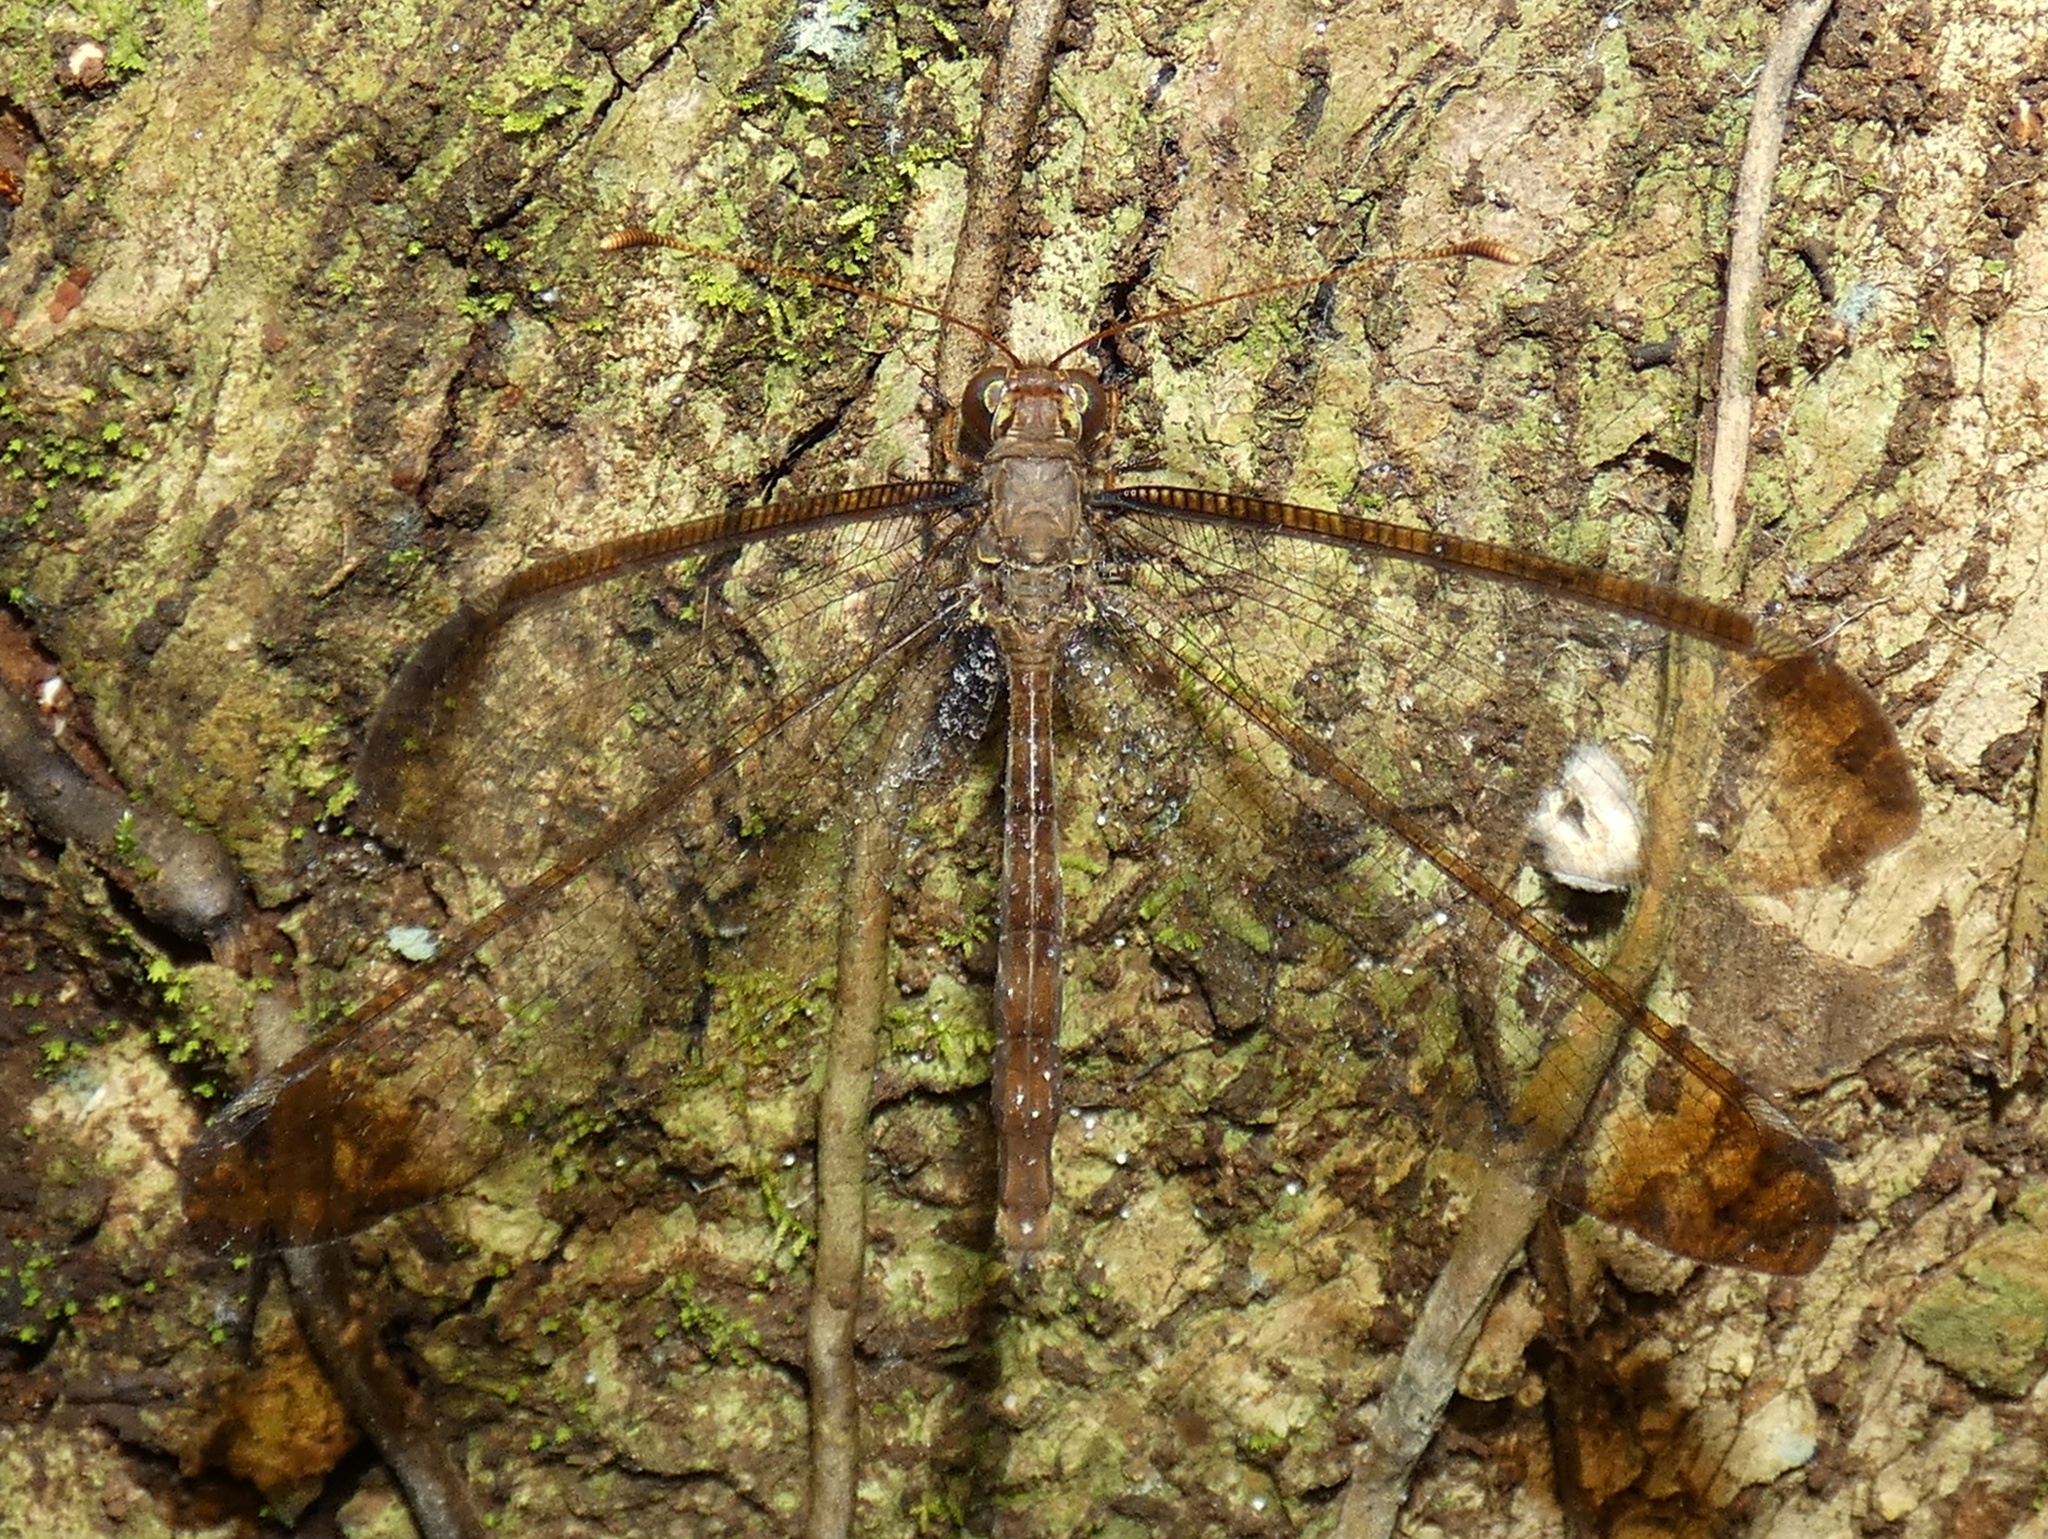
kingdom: Animalia
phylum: Arthropoda
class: Insecta
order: Neuroptera
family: Ascalaphidae
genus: Ascalobyas
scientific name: Ascalobyas albistigma
